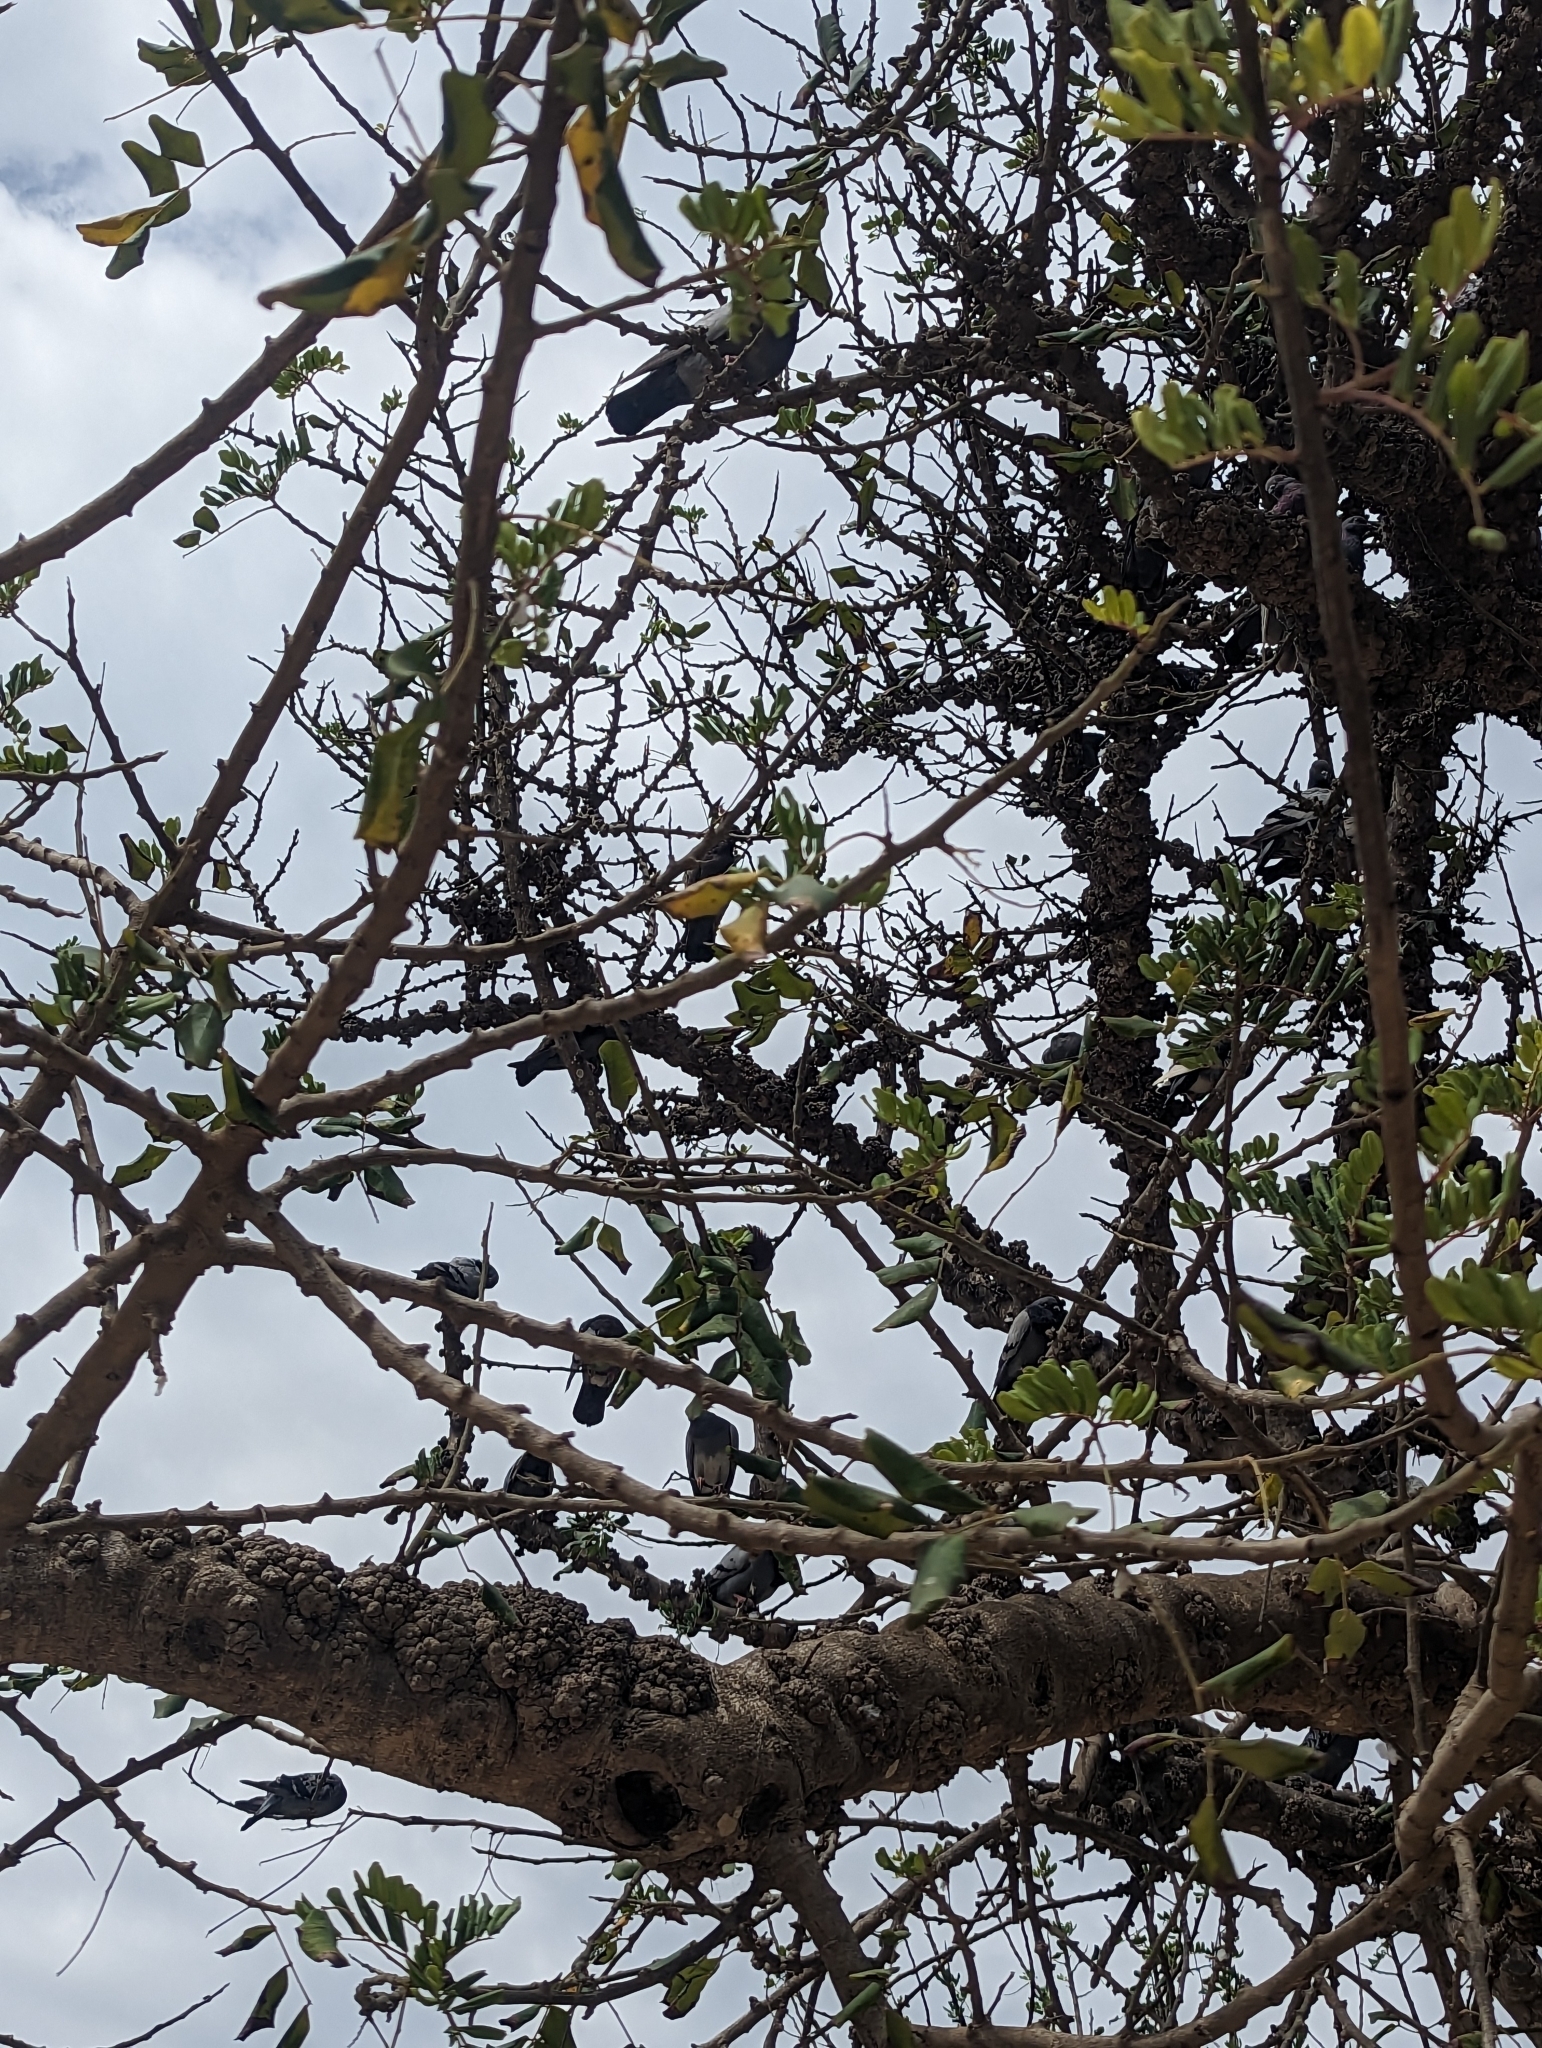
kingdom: Animalia
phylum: Chordata
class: Aves
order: Columbiformes
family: Columbidae
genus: Columba
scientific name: Columba livia
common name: Rock pigeon
